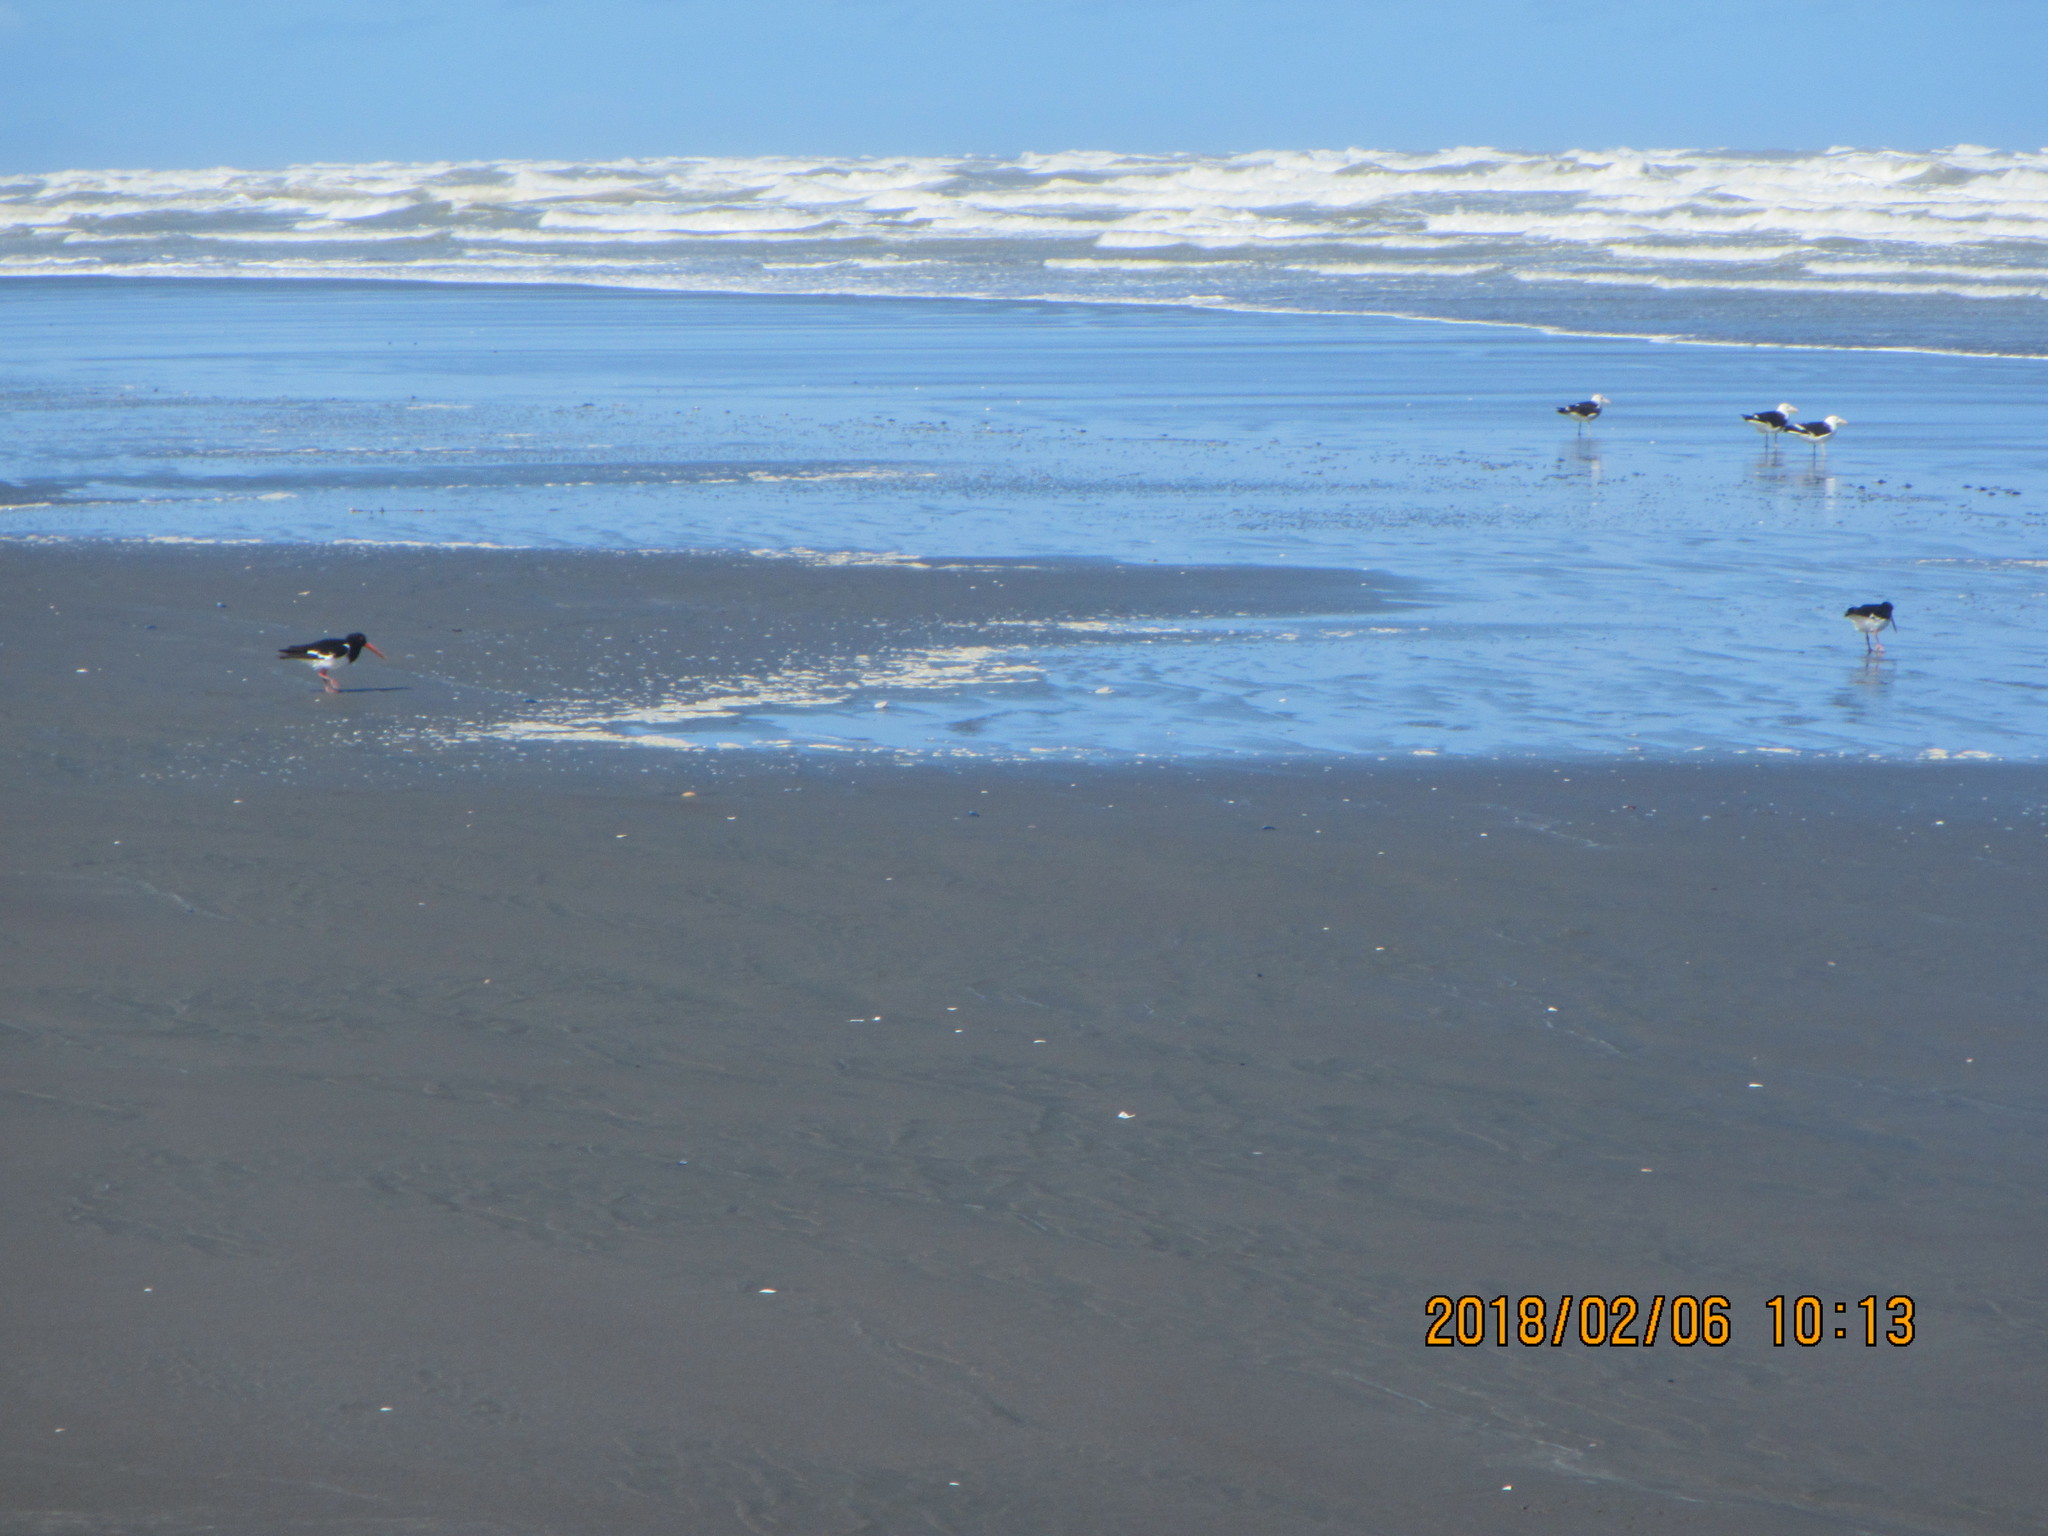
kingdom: Animalia
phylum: Chordata
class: Aves
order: Charadriiformes
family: Haematopodidae
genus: Haematopus
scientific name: Haematopus finschi
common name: South island oystercatcher
